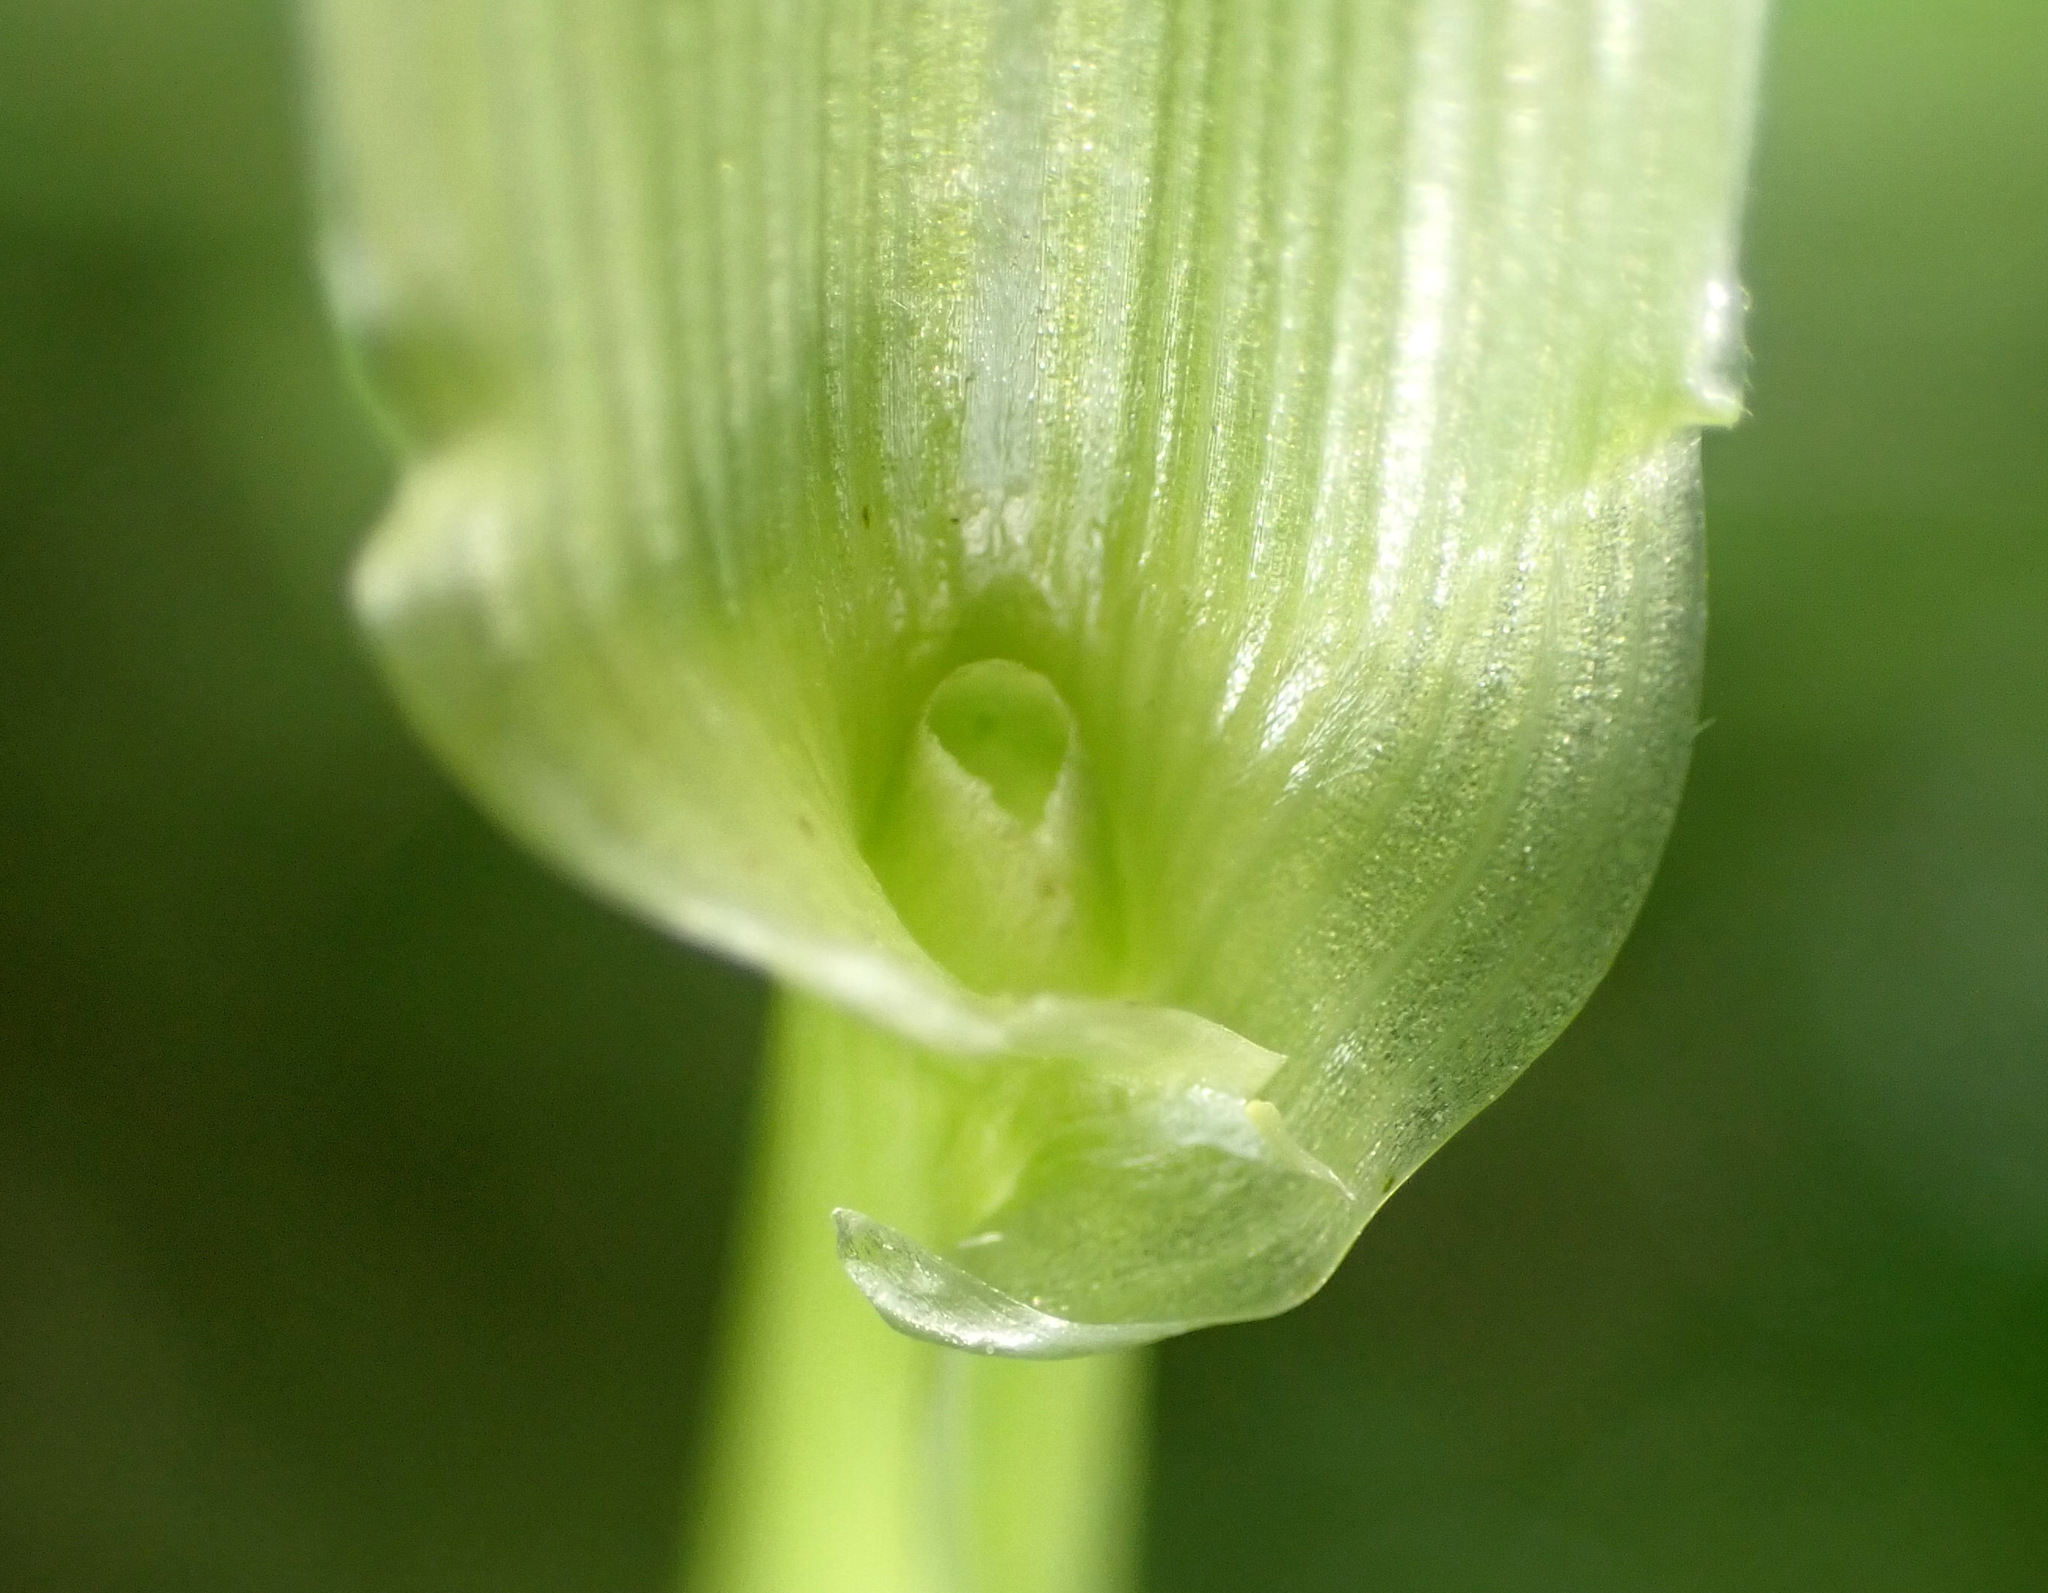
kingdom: Plantae
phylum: Tracheophyta
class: Liliopsida
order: Poales
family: Poaceae
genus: Lolium
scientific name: Lolium giganteum
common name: Giant fescue
